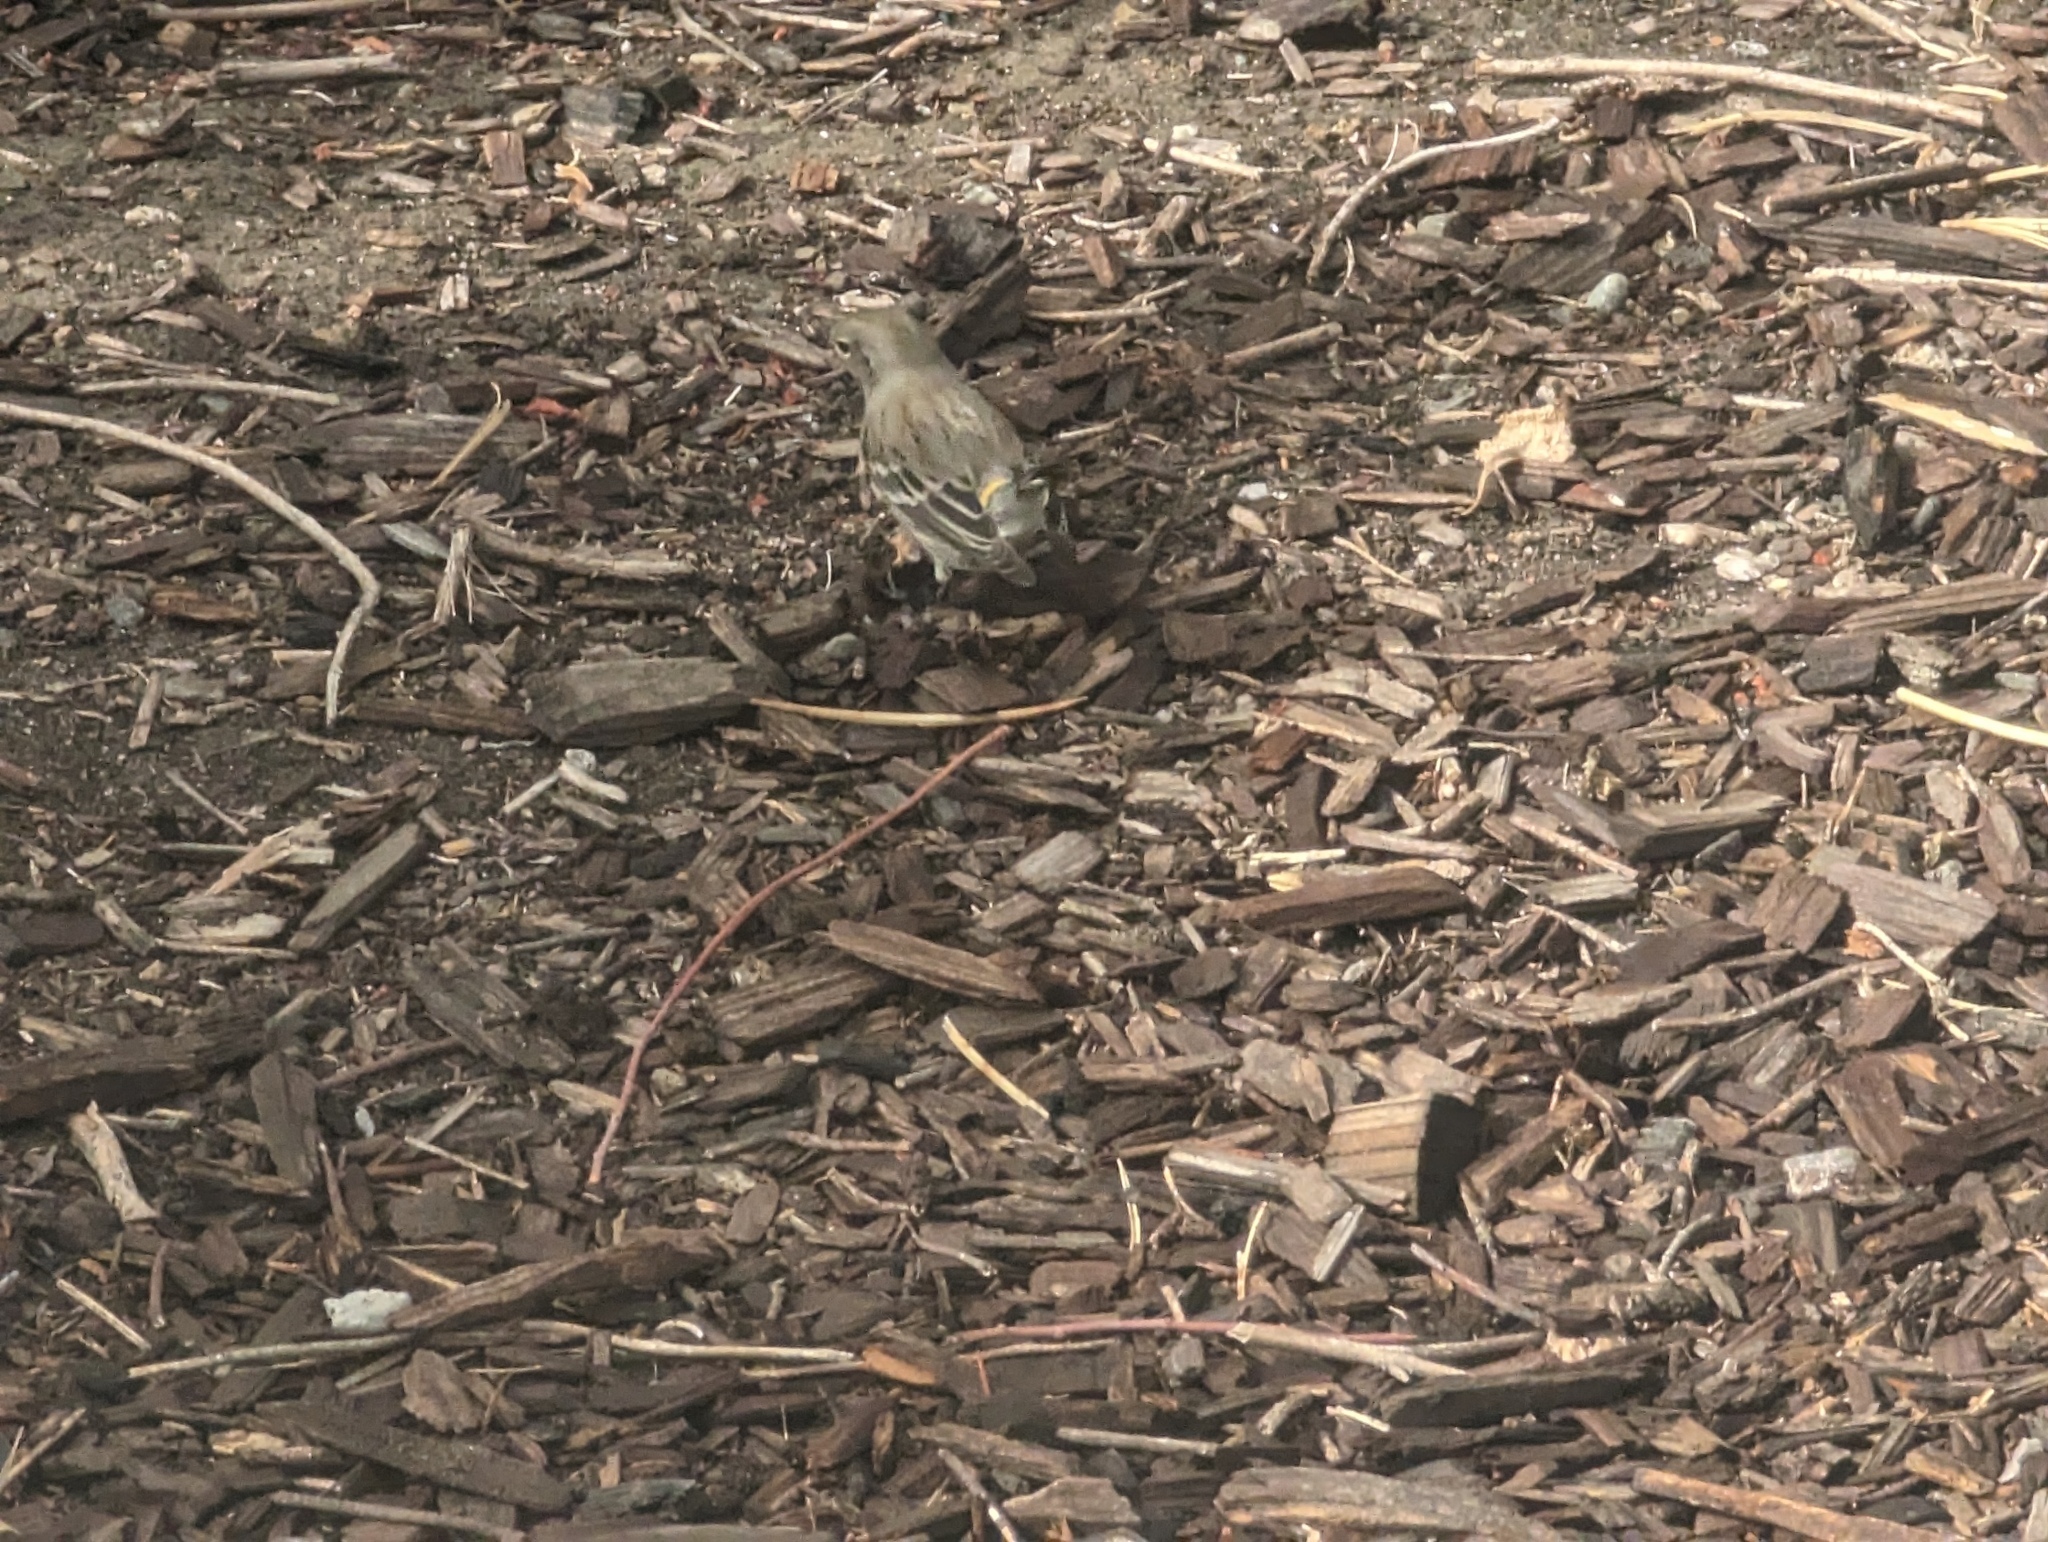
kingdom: Animalia
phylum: Chordata
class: Aves
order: Passeriformes
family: Parulidae
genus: Setophaga
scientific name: Setophaga coronata
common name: Myrtle warbler
